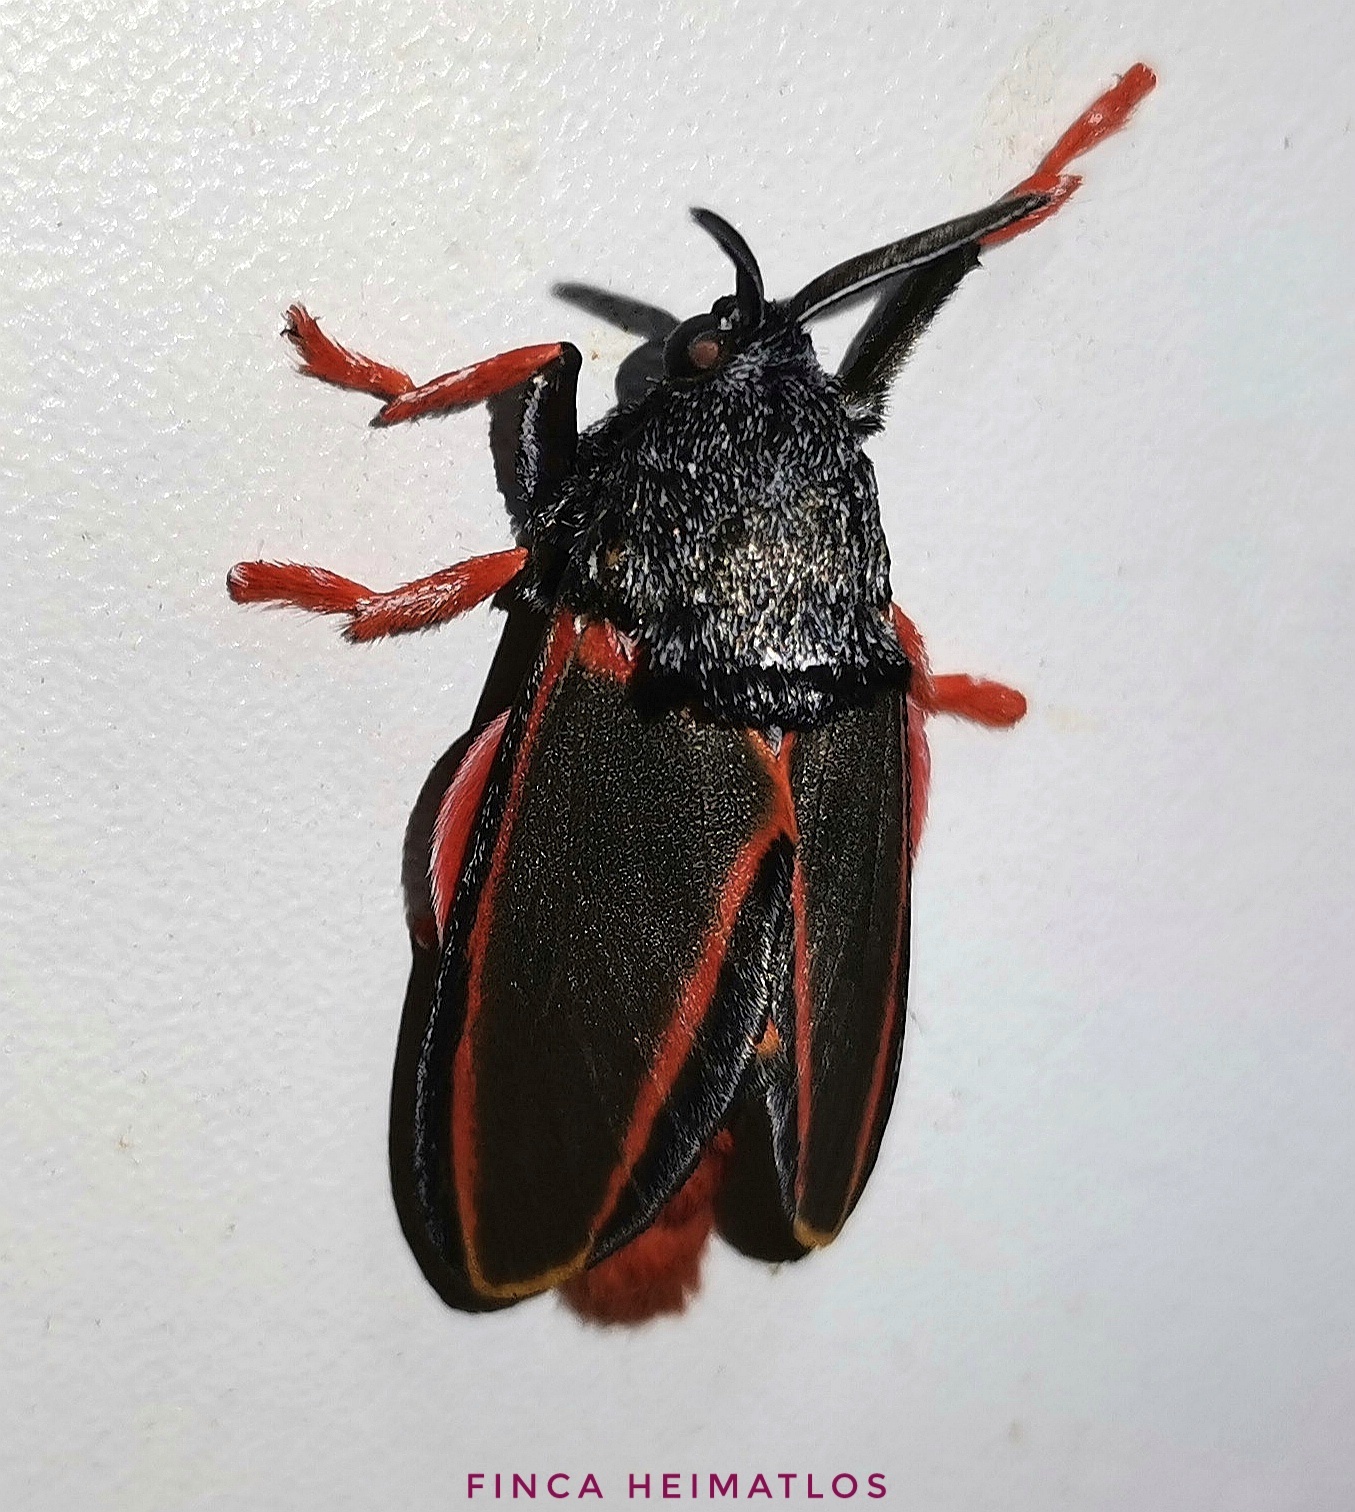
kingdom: Animalia
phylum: Arthropoda
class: Insecta
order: Lepidoptera
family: Megalopygidae
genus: Edebessa
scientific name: Edebessa circumcincta
